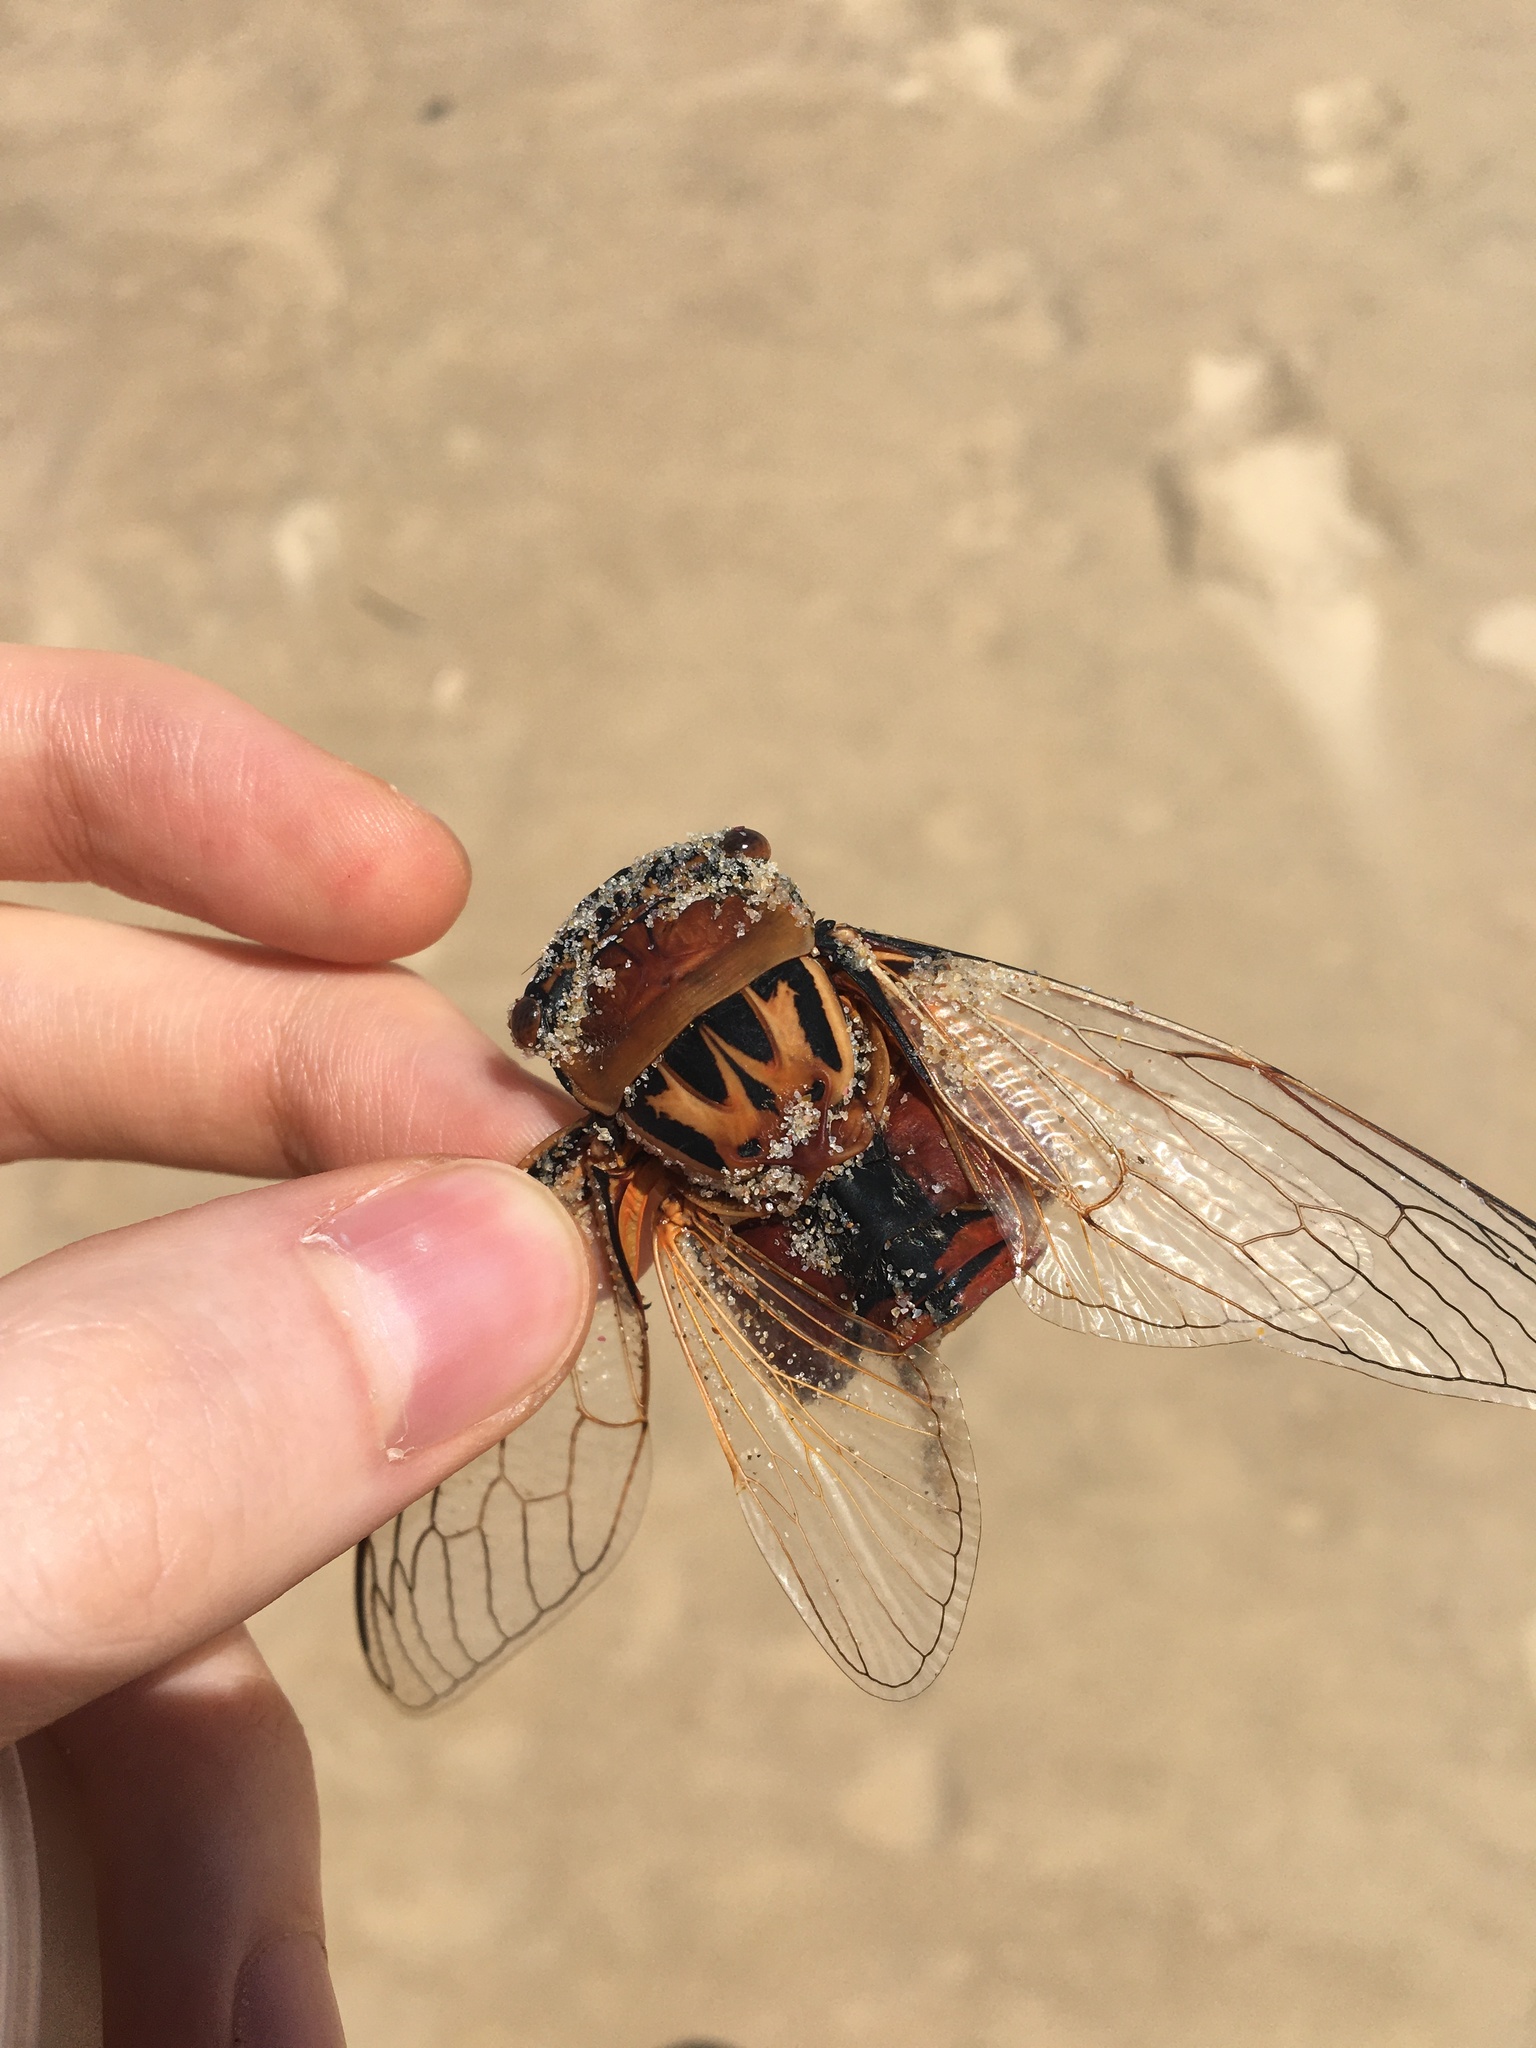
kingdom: Animalia
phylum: Arthropoda
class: Insecta
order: Hemiptera
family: Cicadidae
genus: Thopha
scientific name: Thopha saccata
